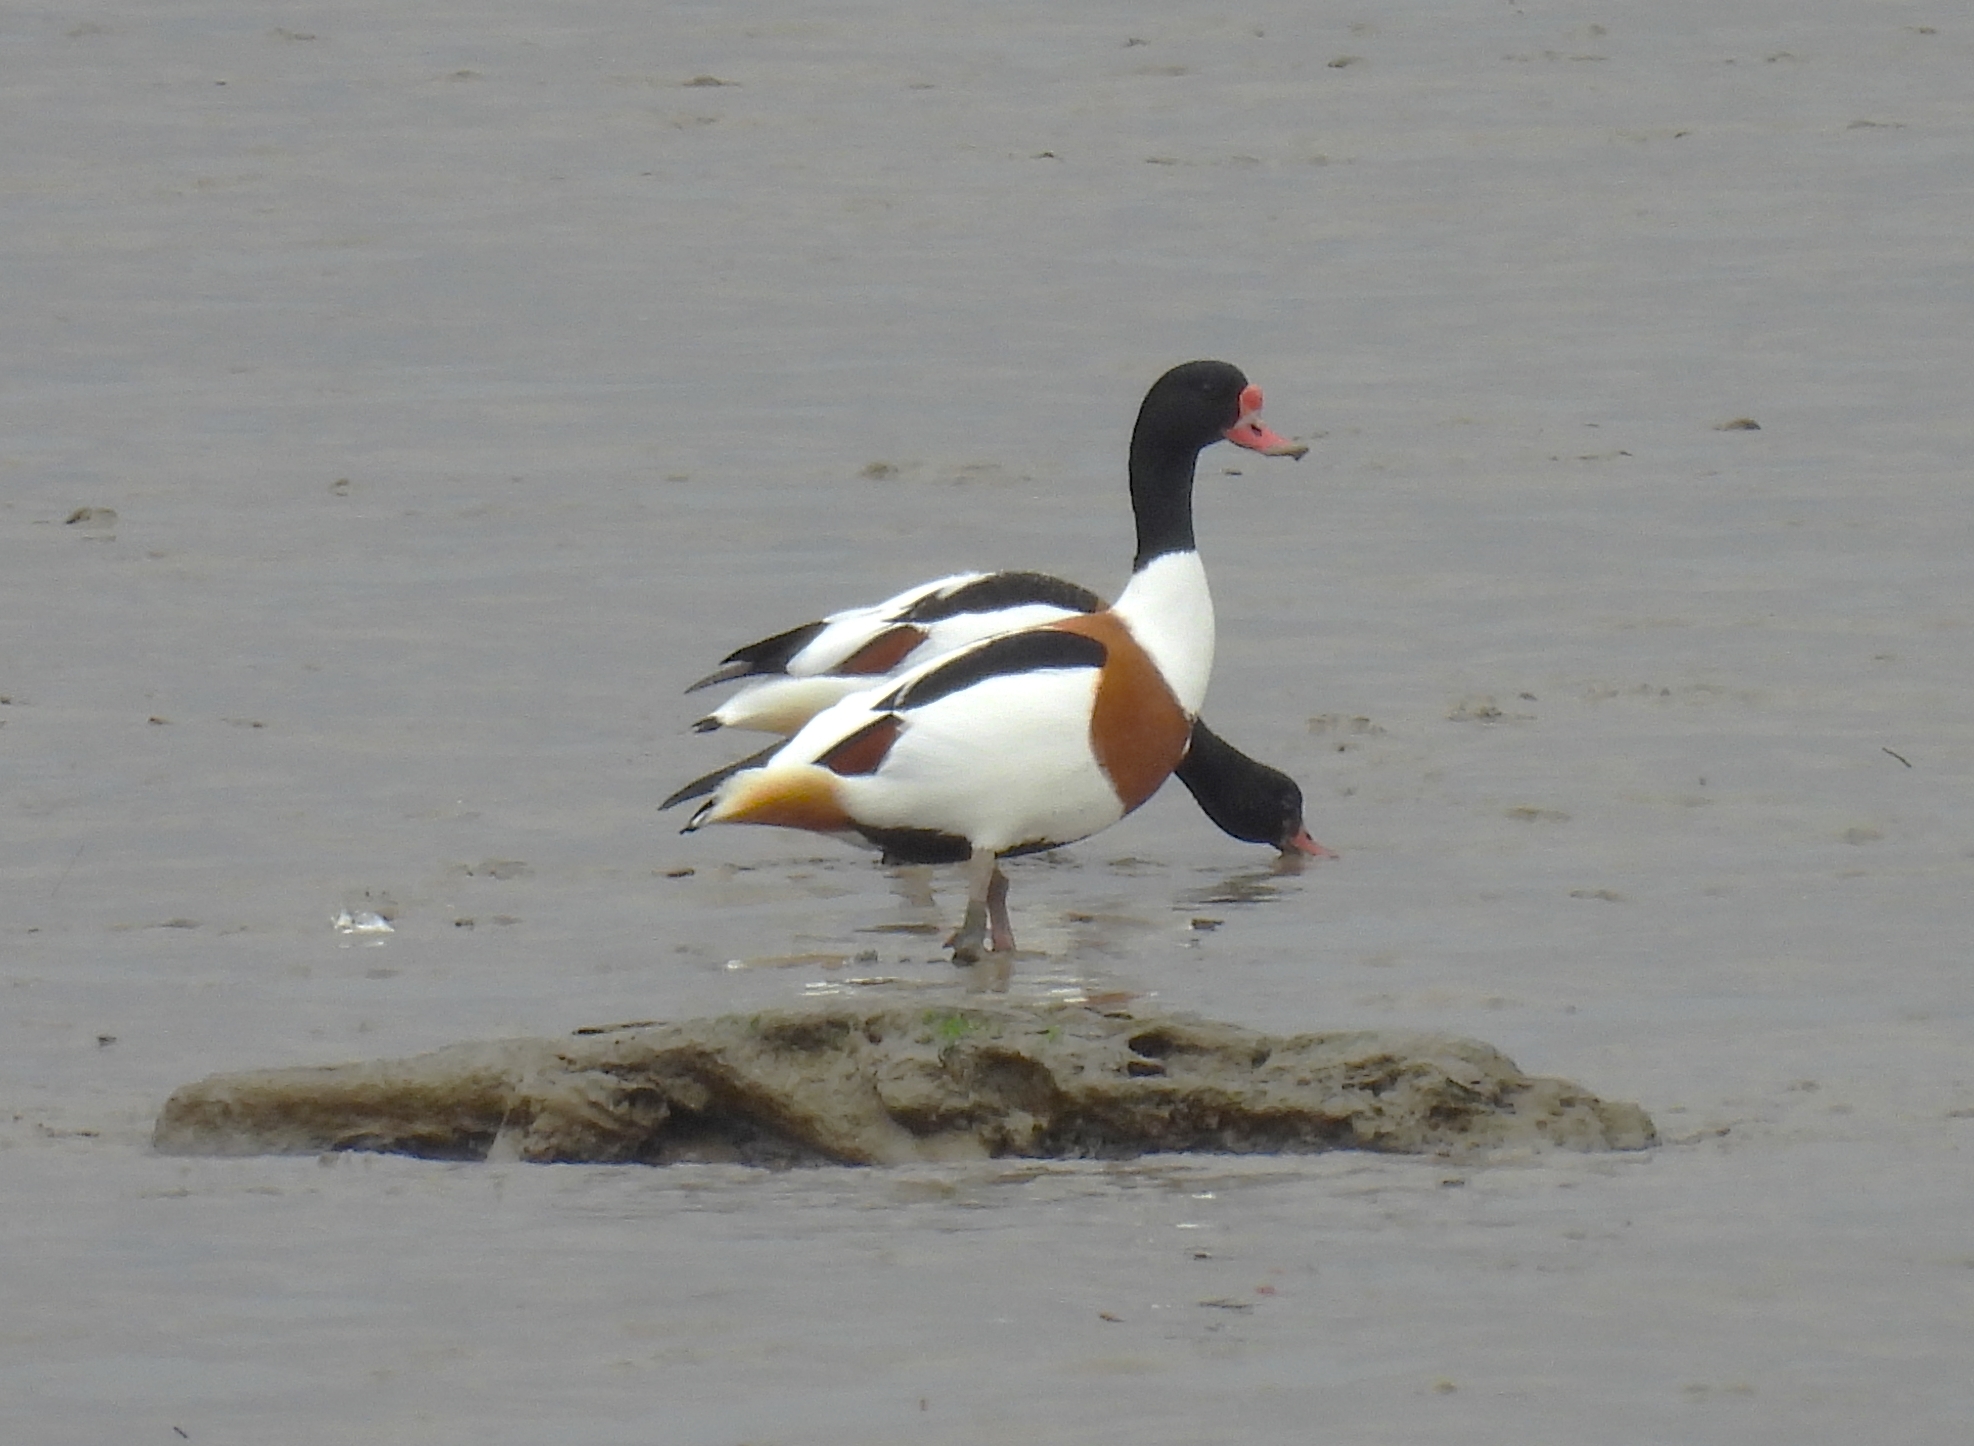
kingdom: Animalia
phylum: Chordata
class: Aves
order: Anseriformes
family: Anatidae
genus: Tadorna
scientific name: Tadorna tadorna
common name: Common shelduck
